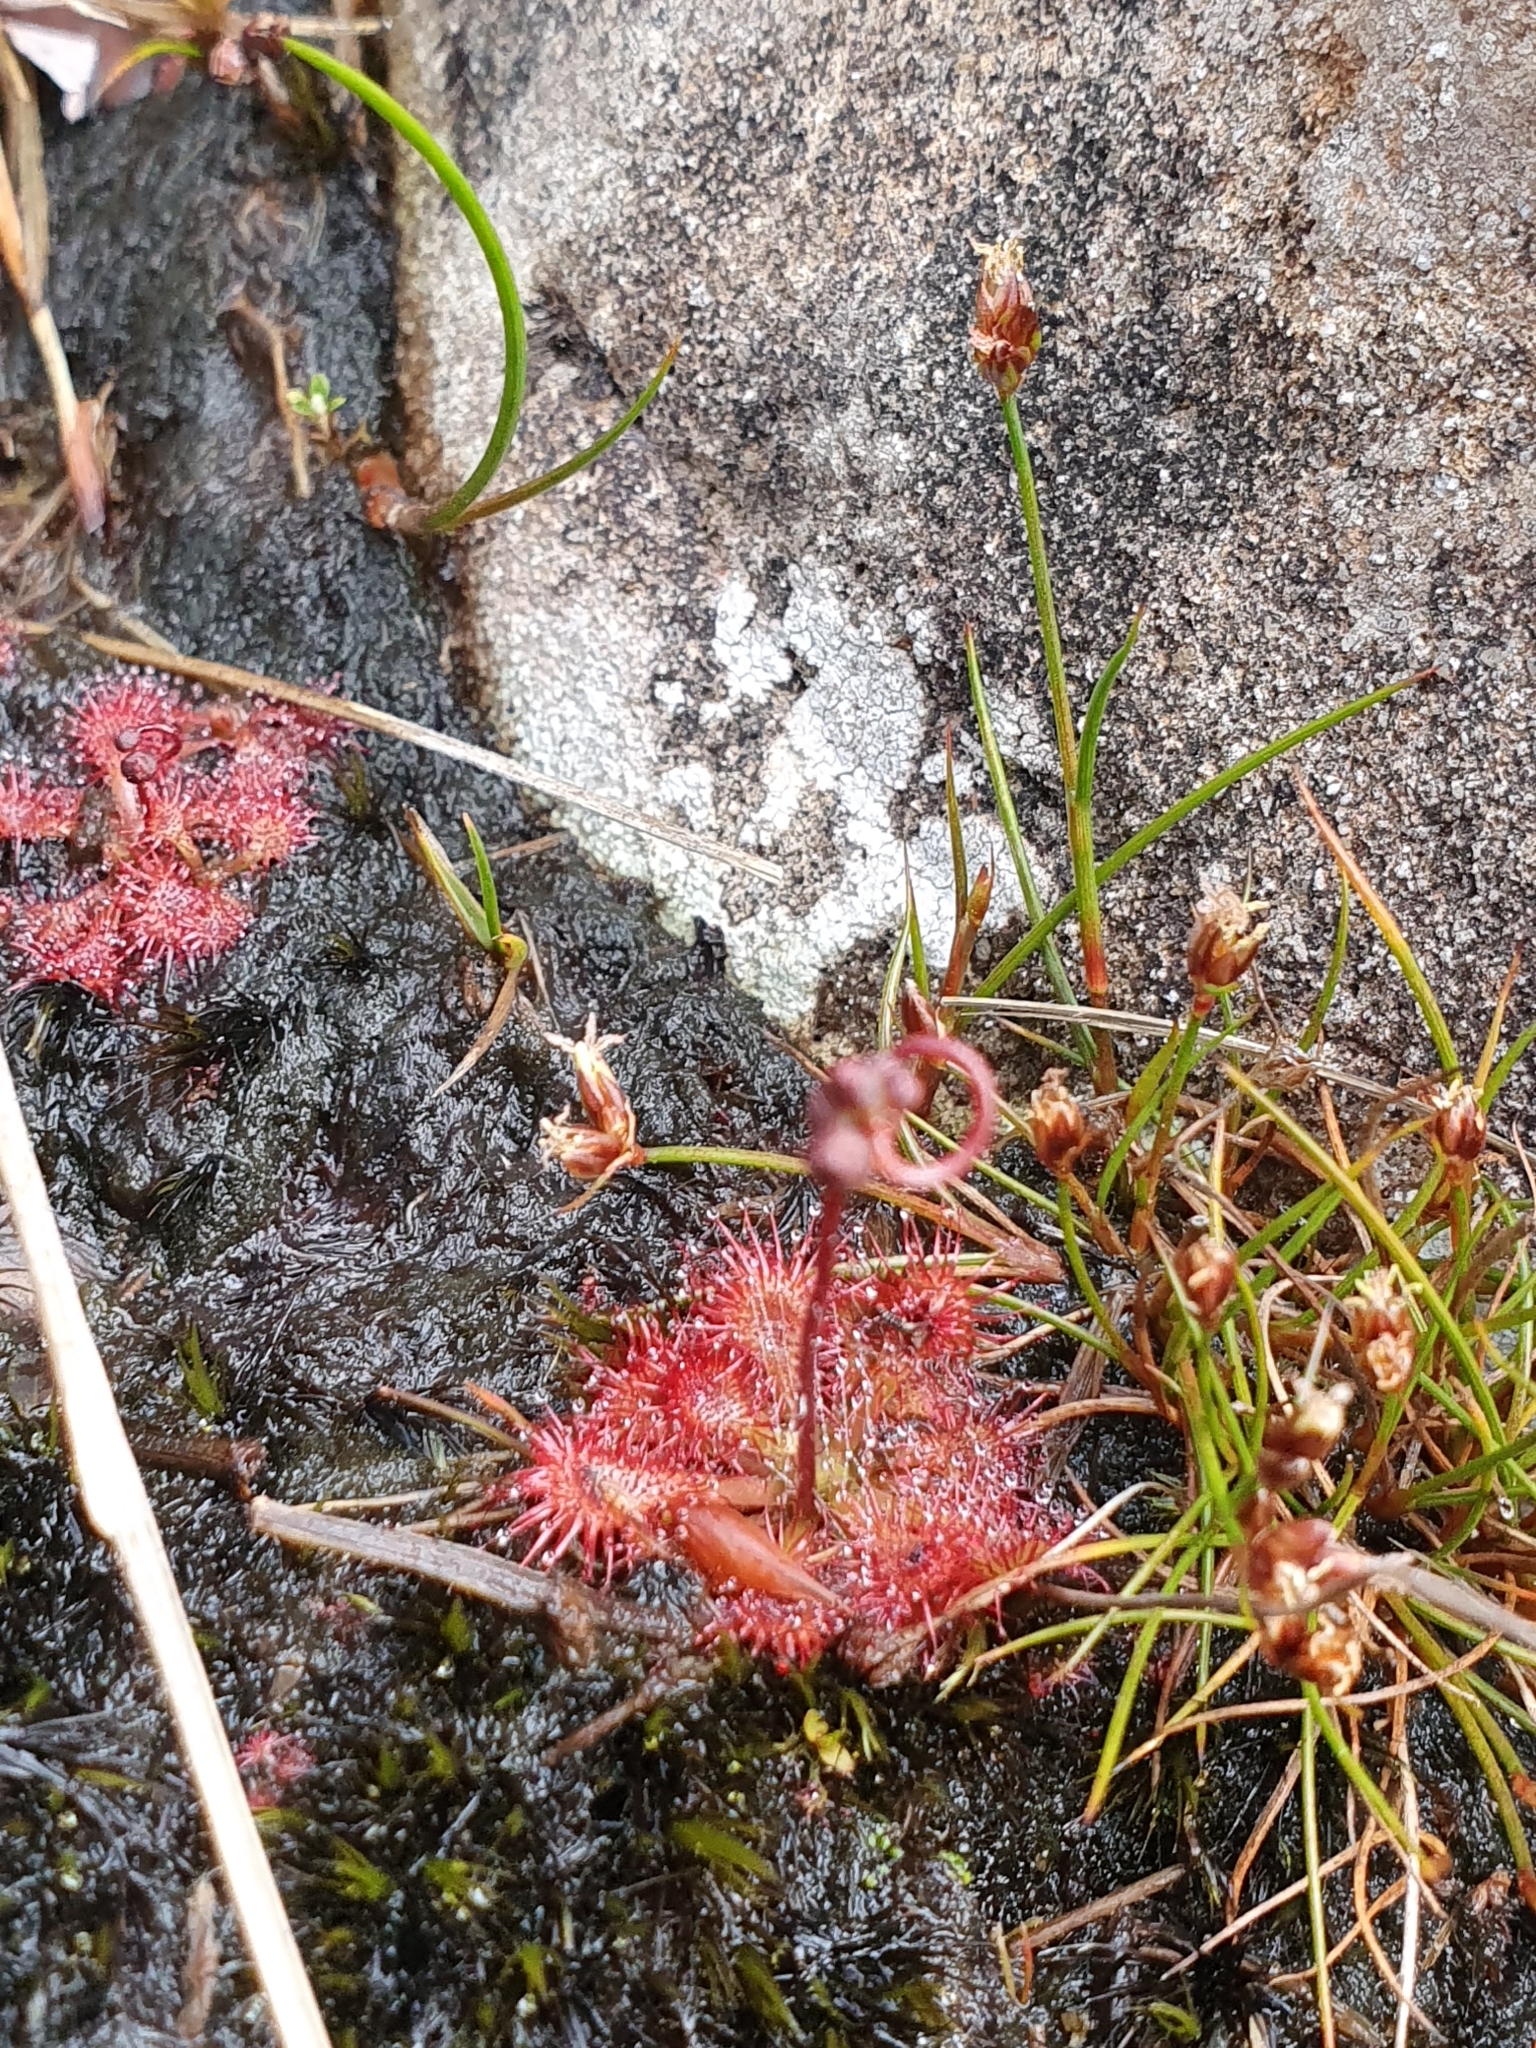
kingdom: Plantae
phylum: Tracheophyta
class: Magnoliopsida
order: Caryophyllales
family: Droseraceae
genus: Drosera
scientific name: Drosera spatulata
